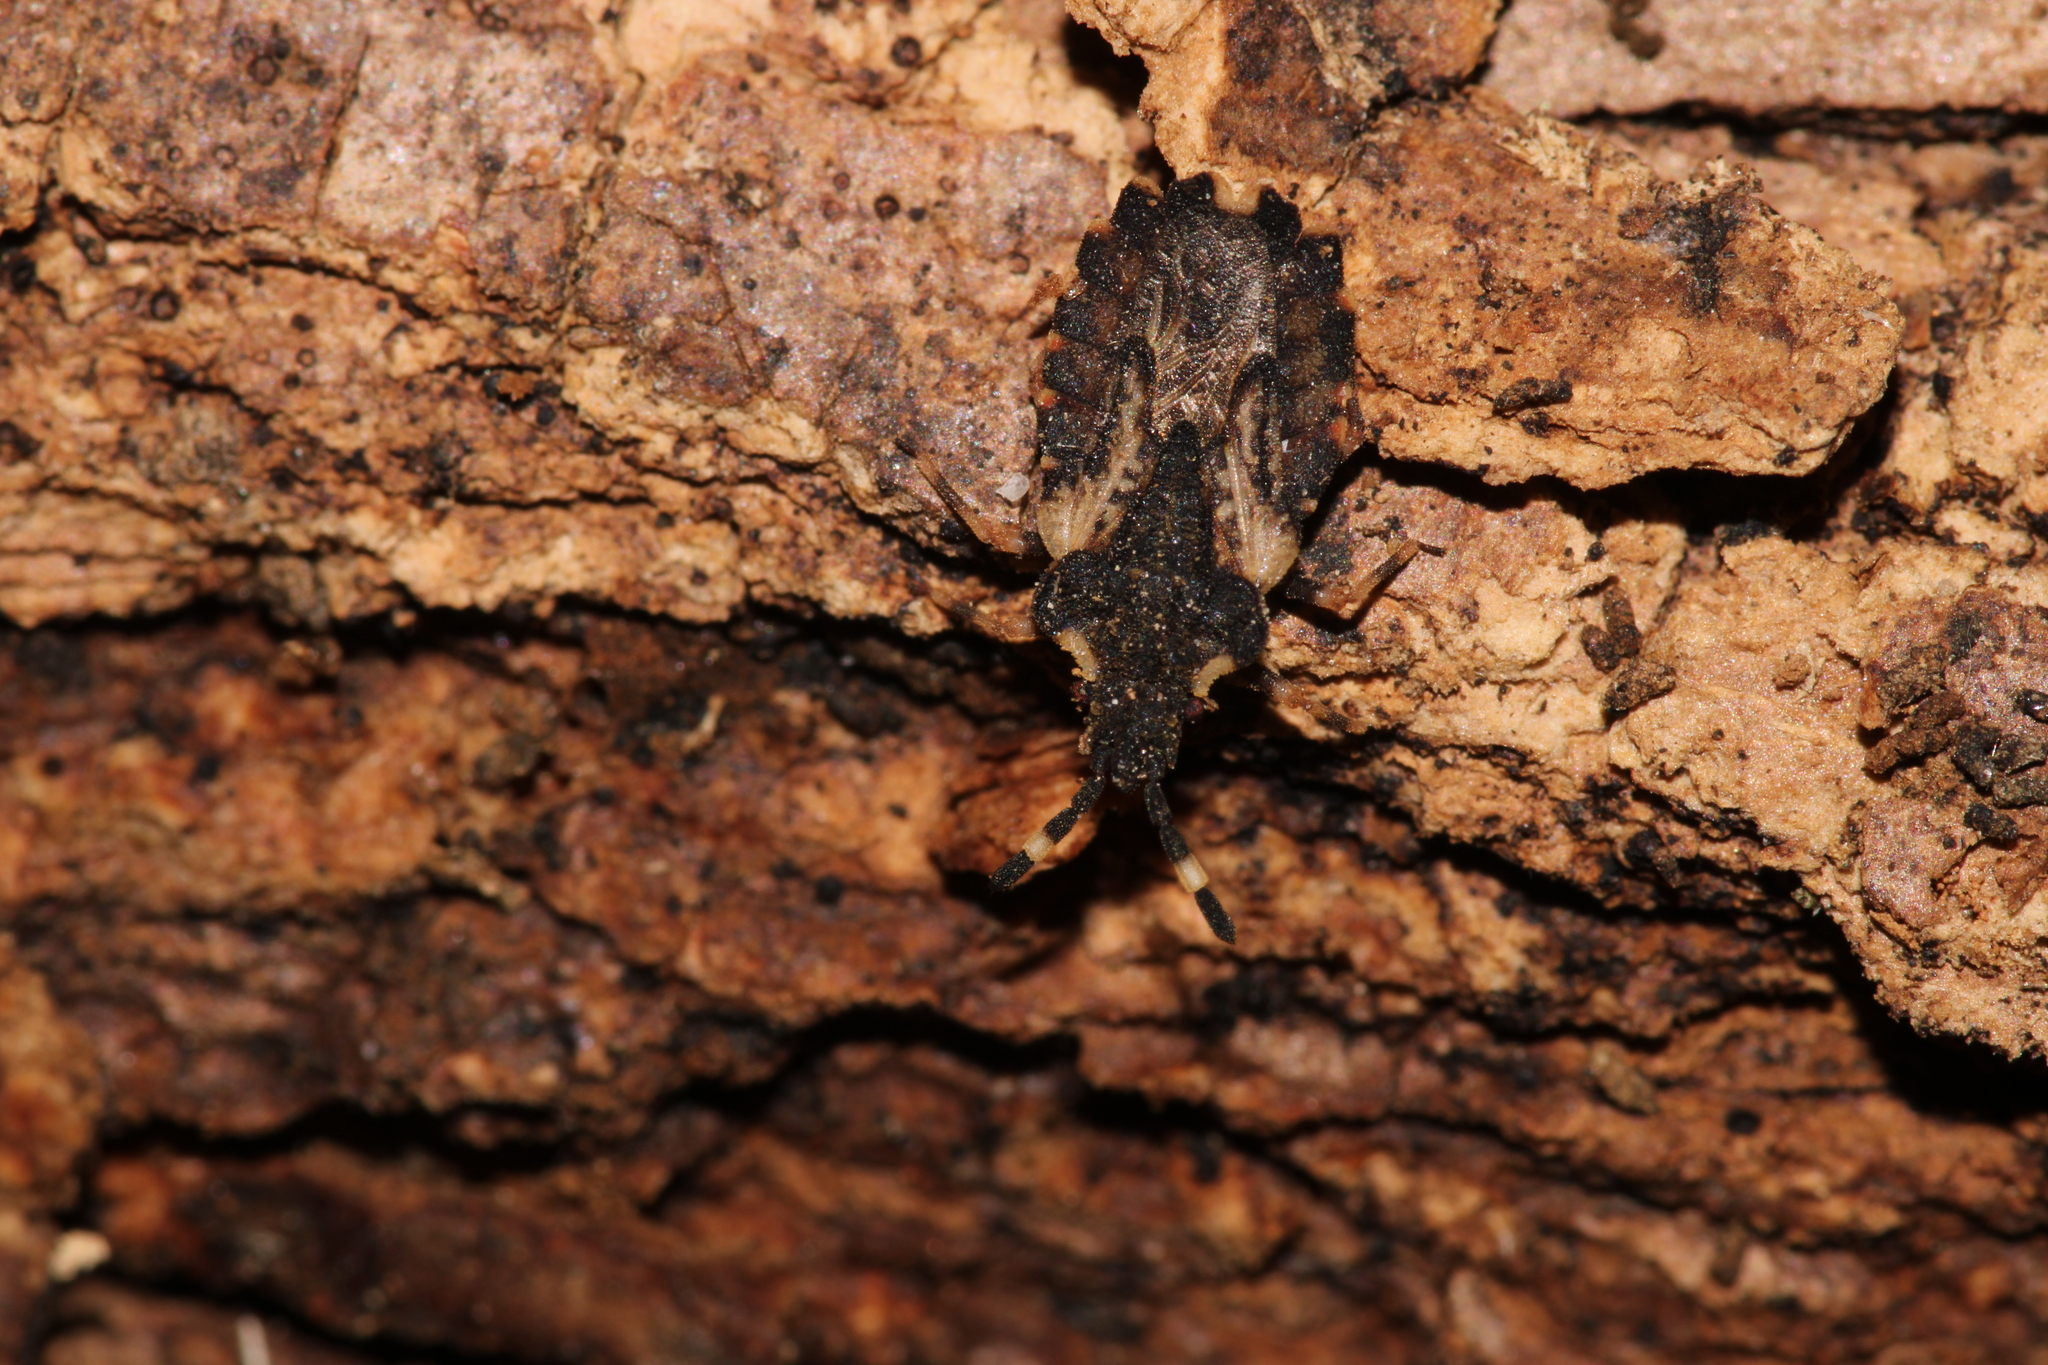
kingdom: Animalia
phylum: Arthropoda
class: Insecta
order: Hemiptera
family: Aradidae
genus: Aradus
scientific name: Aradus versicolor
